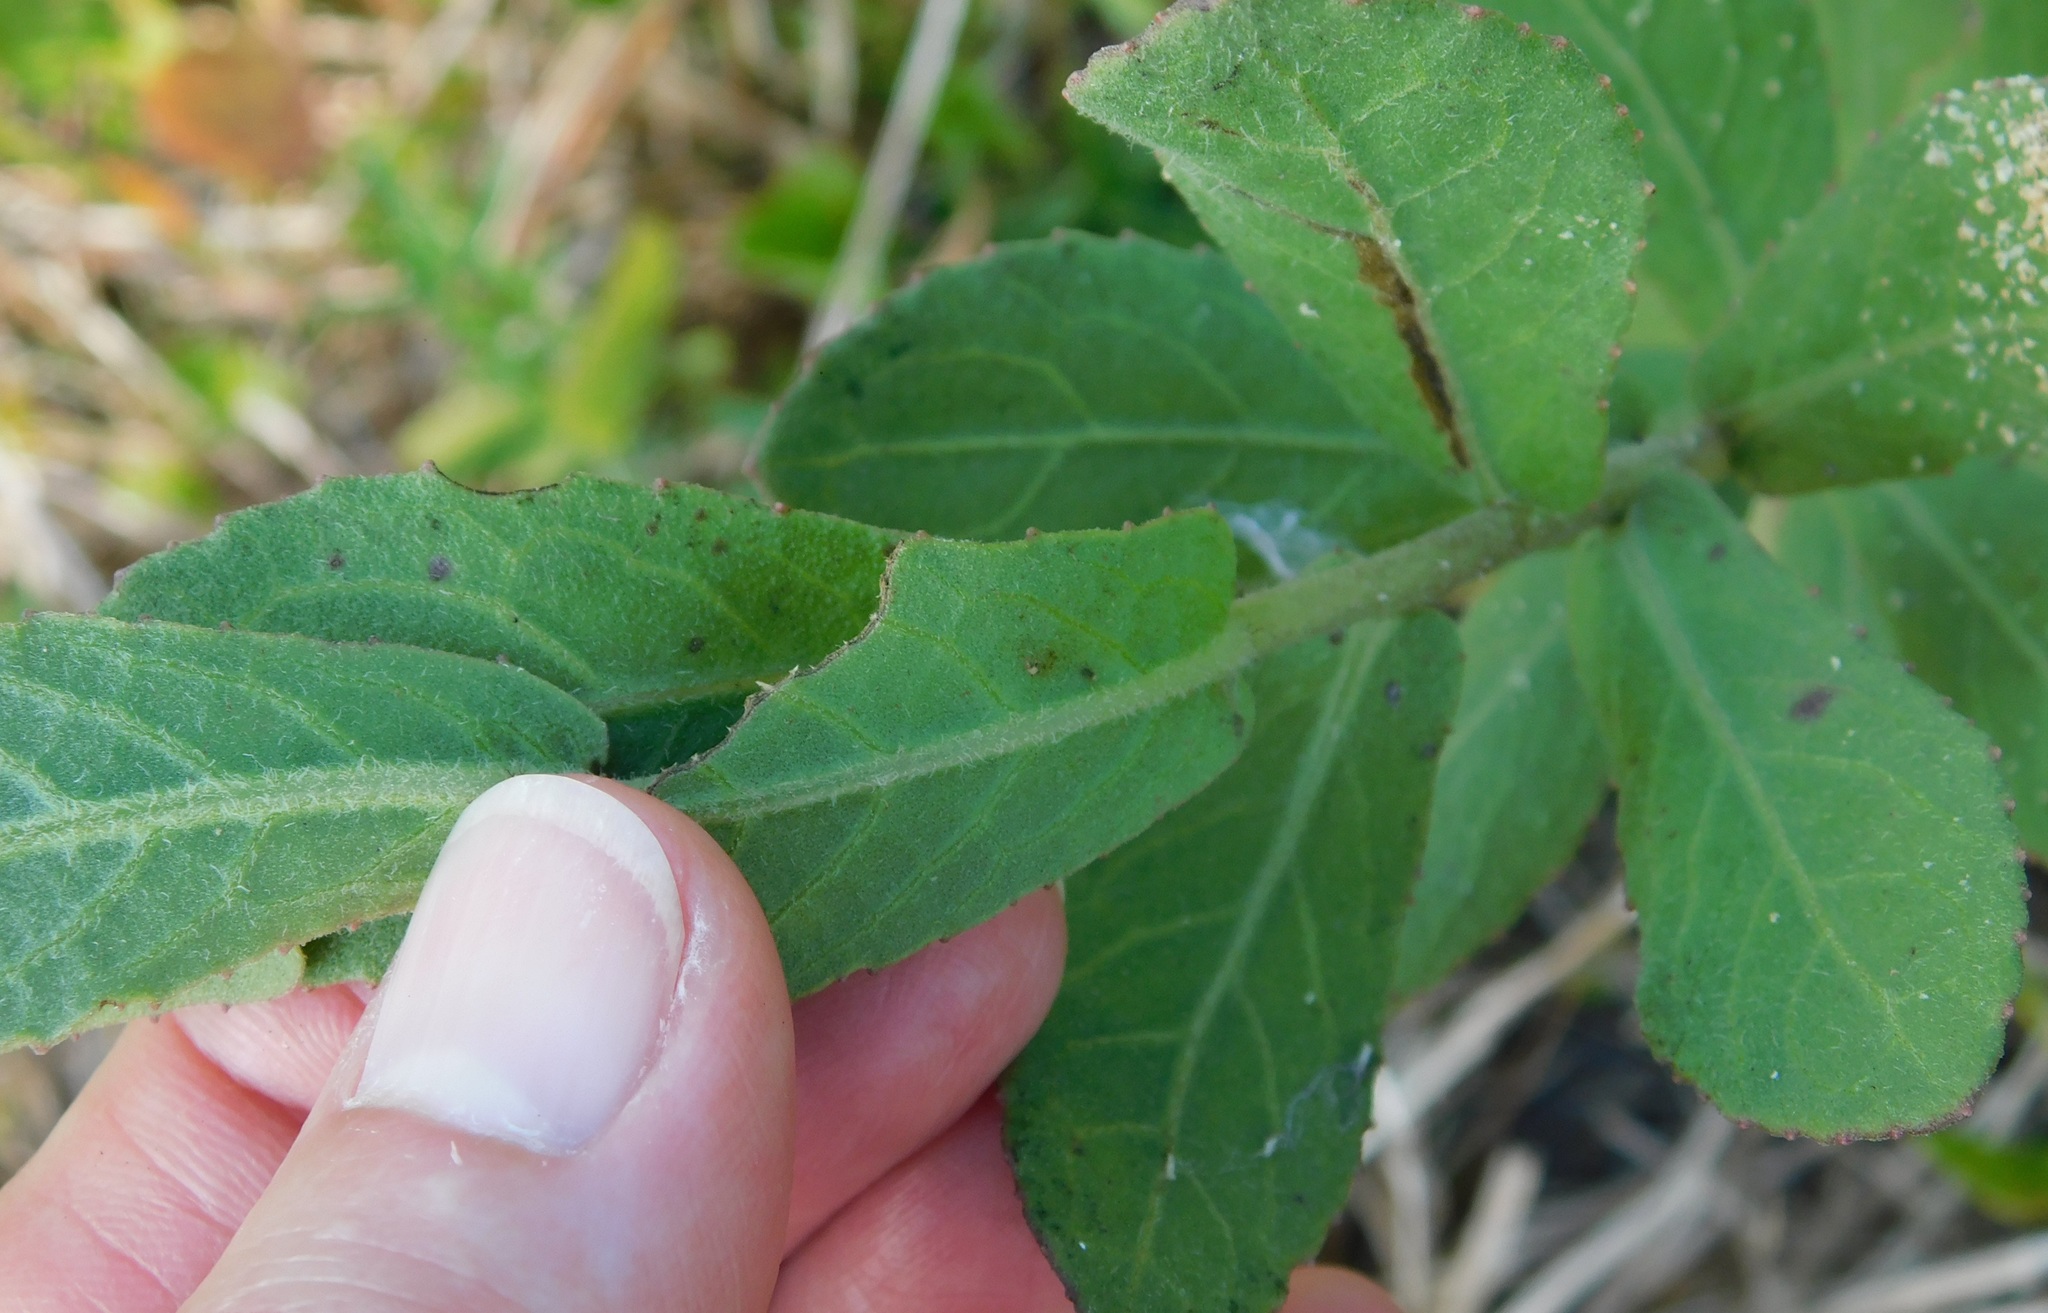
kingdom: Plantae
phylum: Tracheophyta
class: Magnoliopsida
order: Asterales
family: Asteraceae
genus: Pluchea
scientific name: Pluchea baccharis
